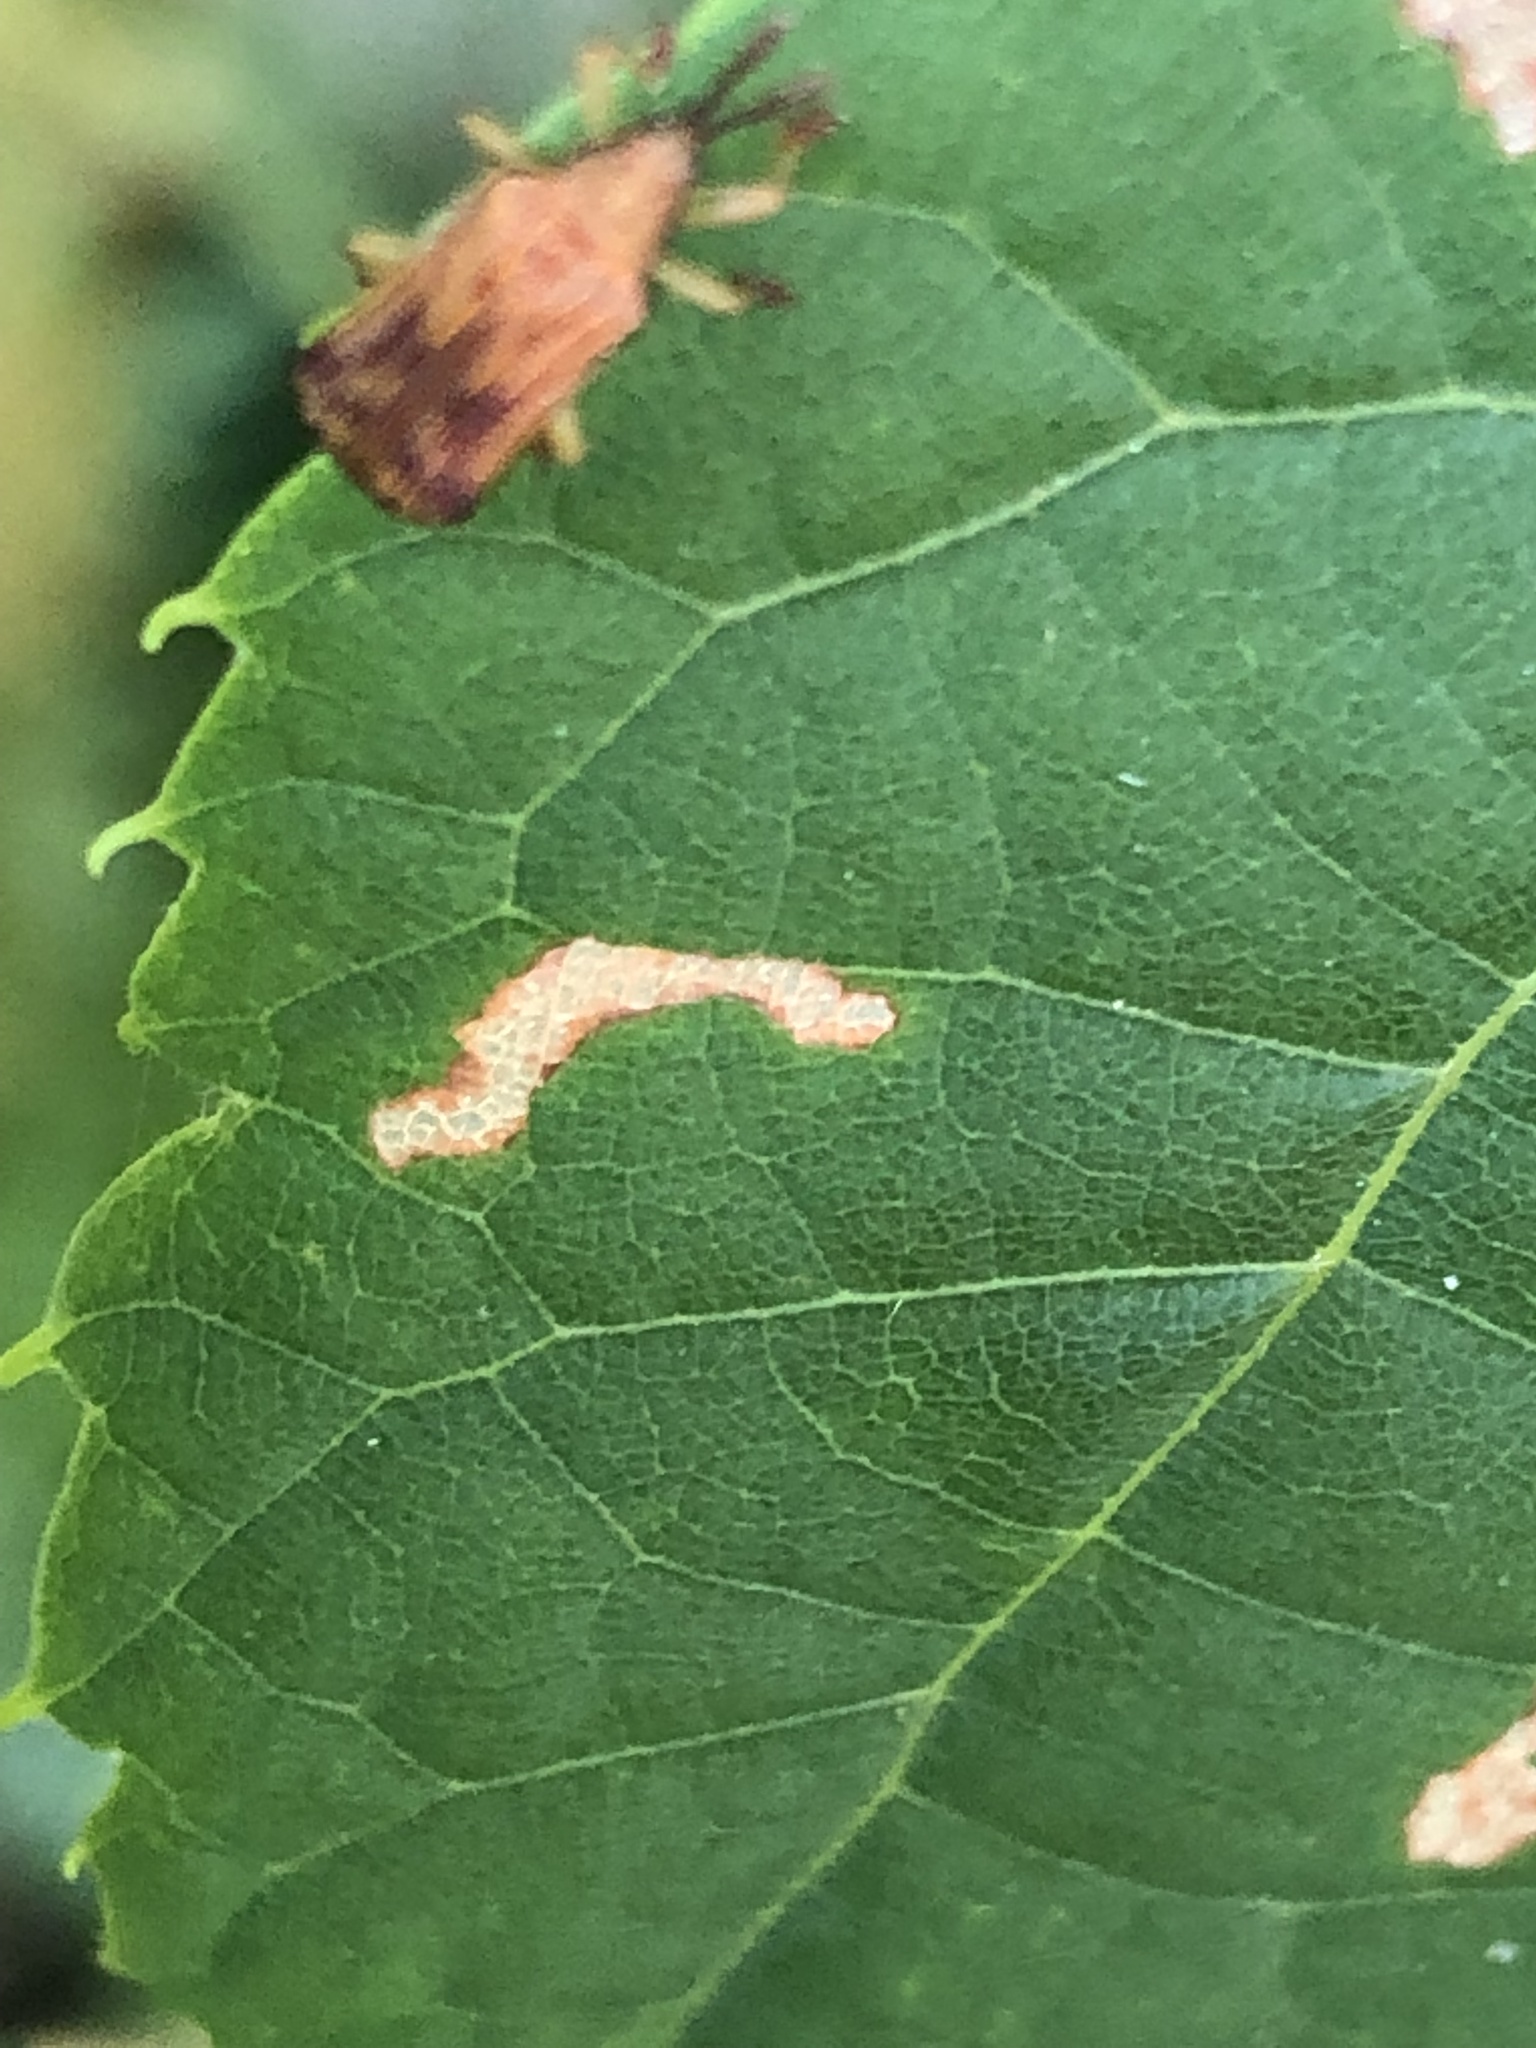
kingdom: Animalia
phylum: Arthropoda
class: Insecta
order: Coleoptera
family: Chrysomelidae
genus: Baliosus
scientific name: Baliosus nervosus
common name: Basswood leaf miner
